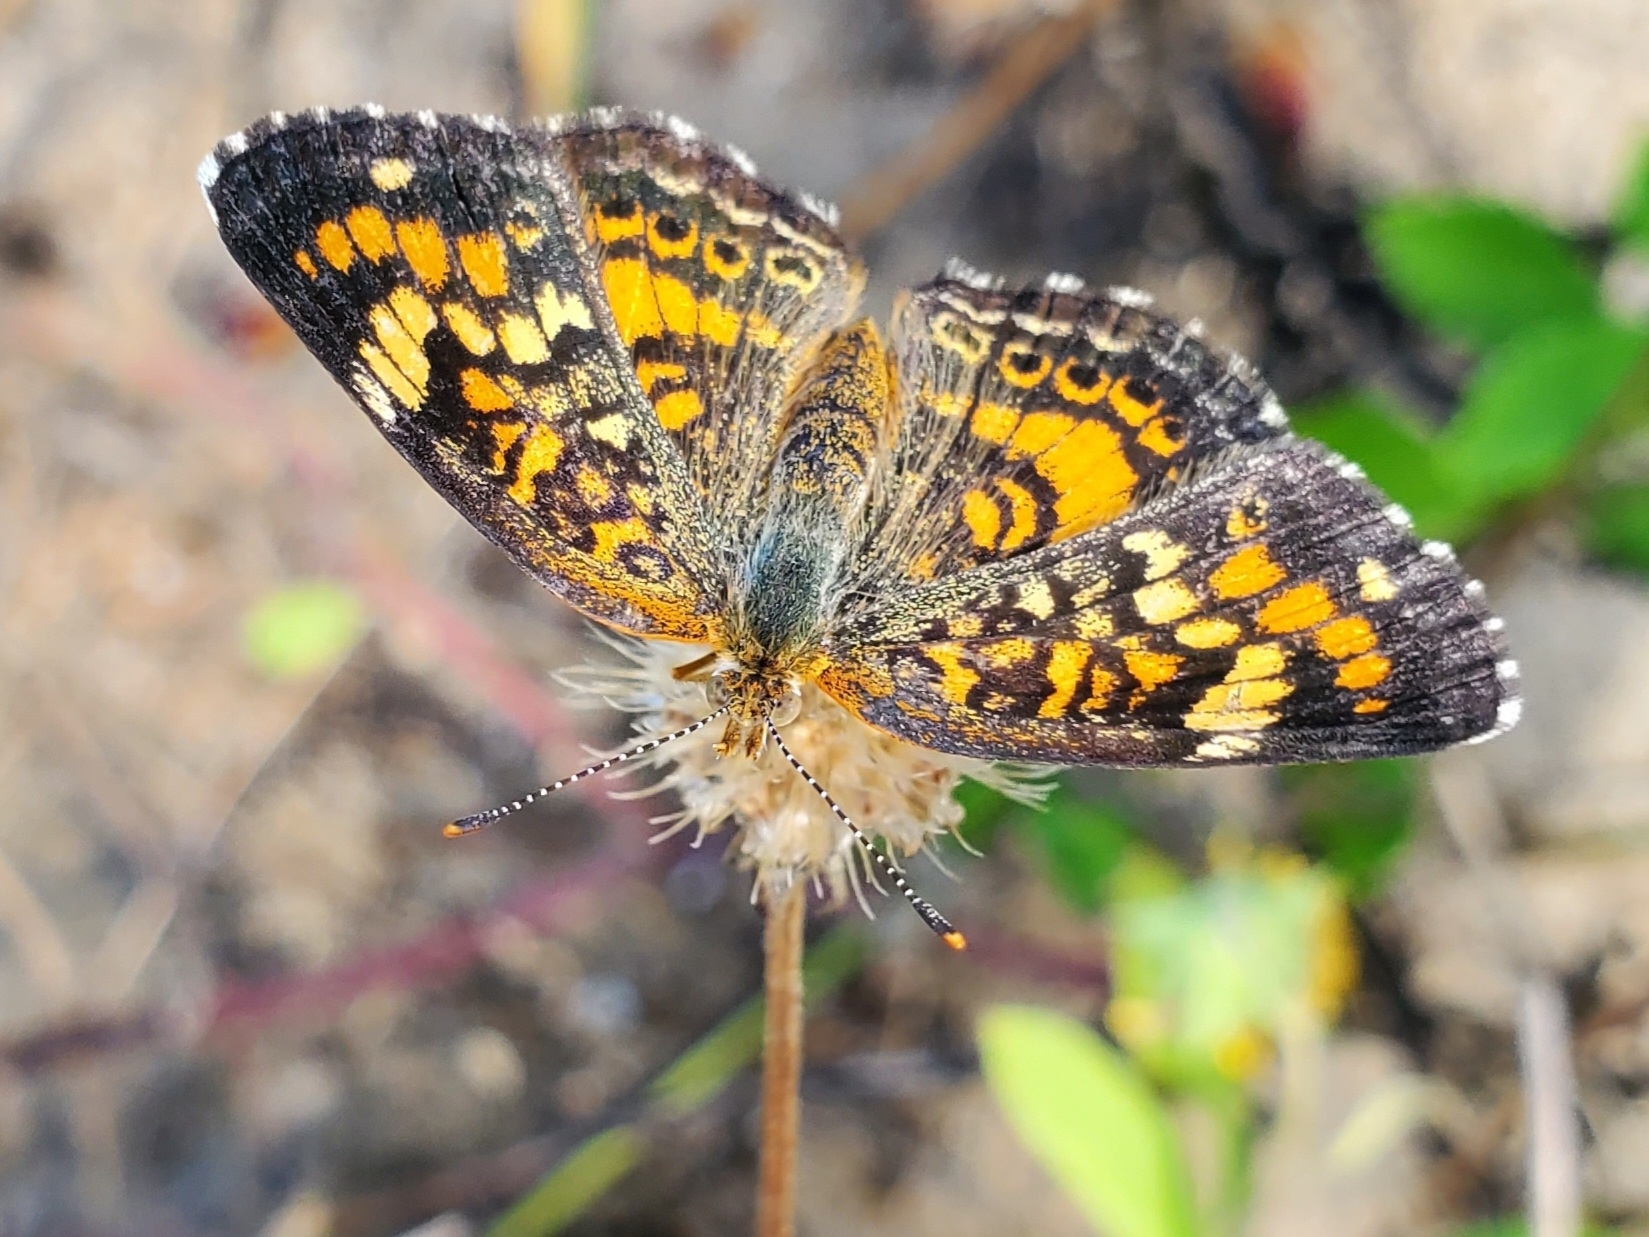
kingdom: Animalia
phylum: Arthropoda
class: Insecta
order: Lepidoptera
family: Nymphalidae
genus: Phyciodes
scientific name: Phyciodes phaon
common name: Phaon crescent
